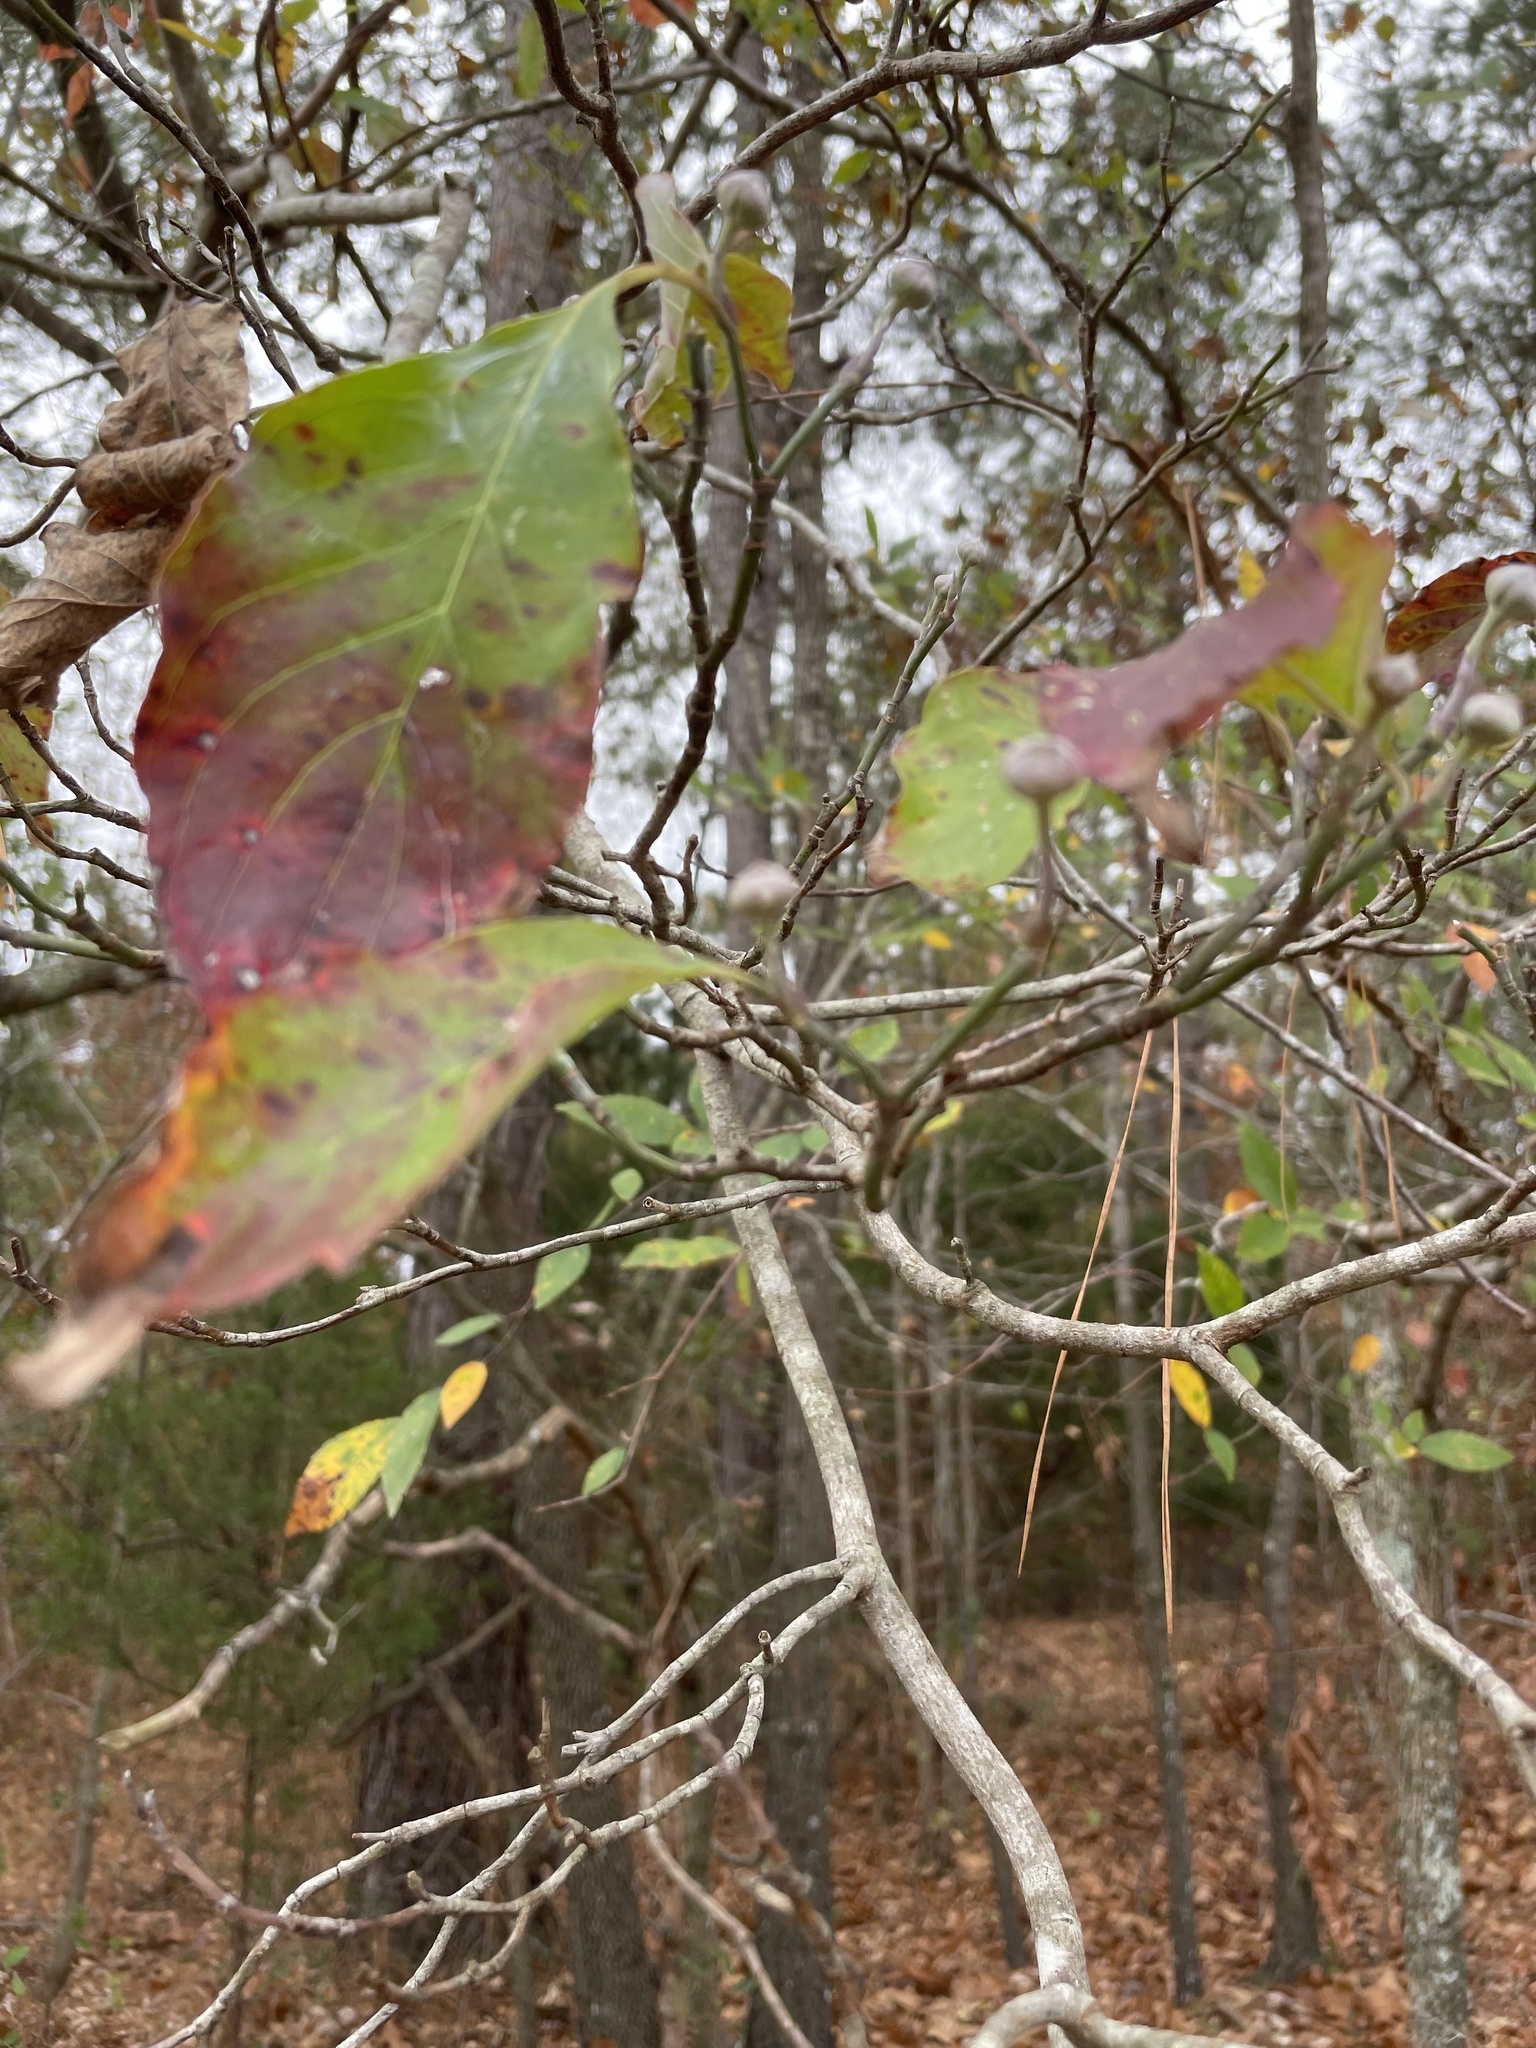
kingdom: Plantae
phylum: Tracheophyta
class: Magnoliopsida
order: Cornales
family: Cornaceae
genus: Cornus
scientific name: Cornus florida
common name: Flowering dogwood
